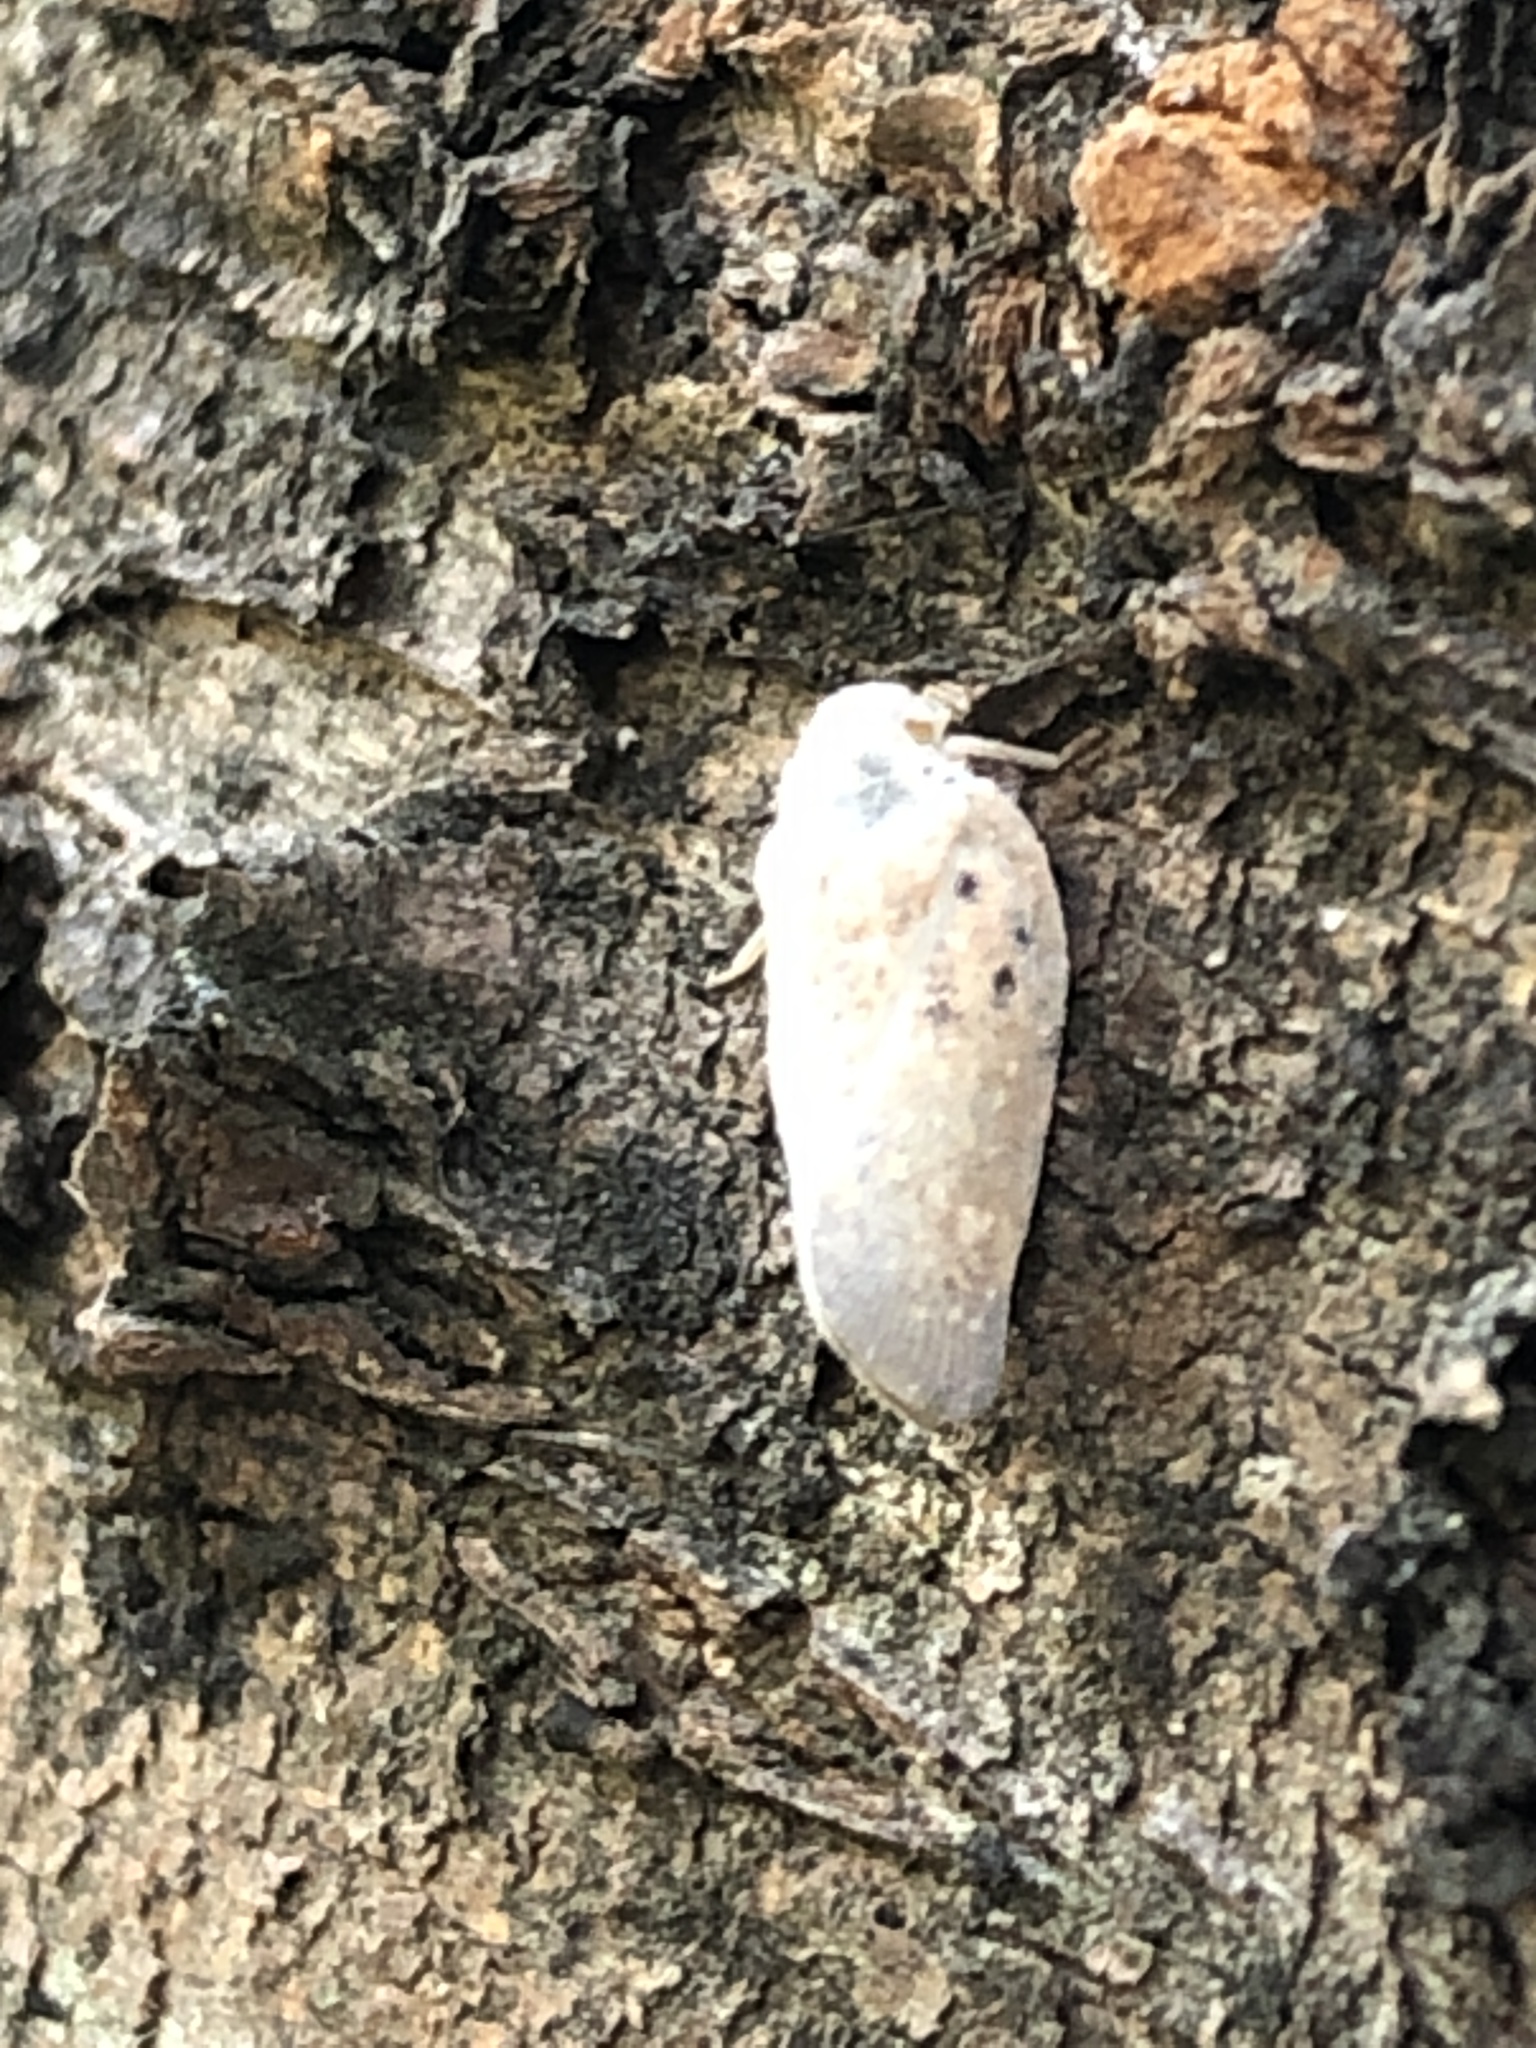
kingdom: Animalia
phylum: Arthropoda
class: Insecta
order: Hemiptera
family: Flatidae
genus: Metcalfa
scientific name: Metcalfa pruinosa
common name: Citrus flatid planthopper
